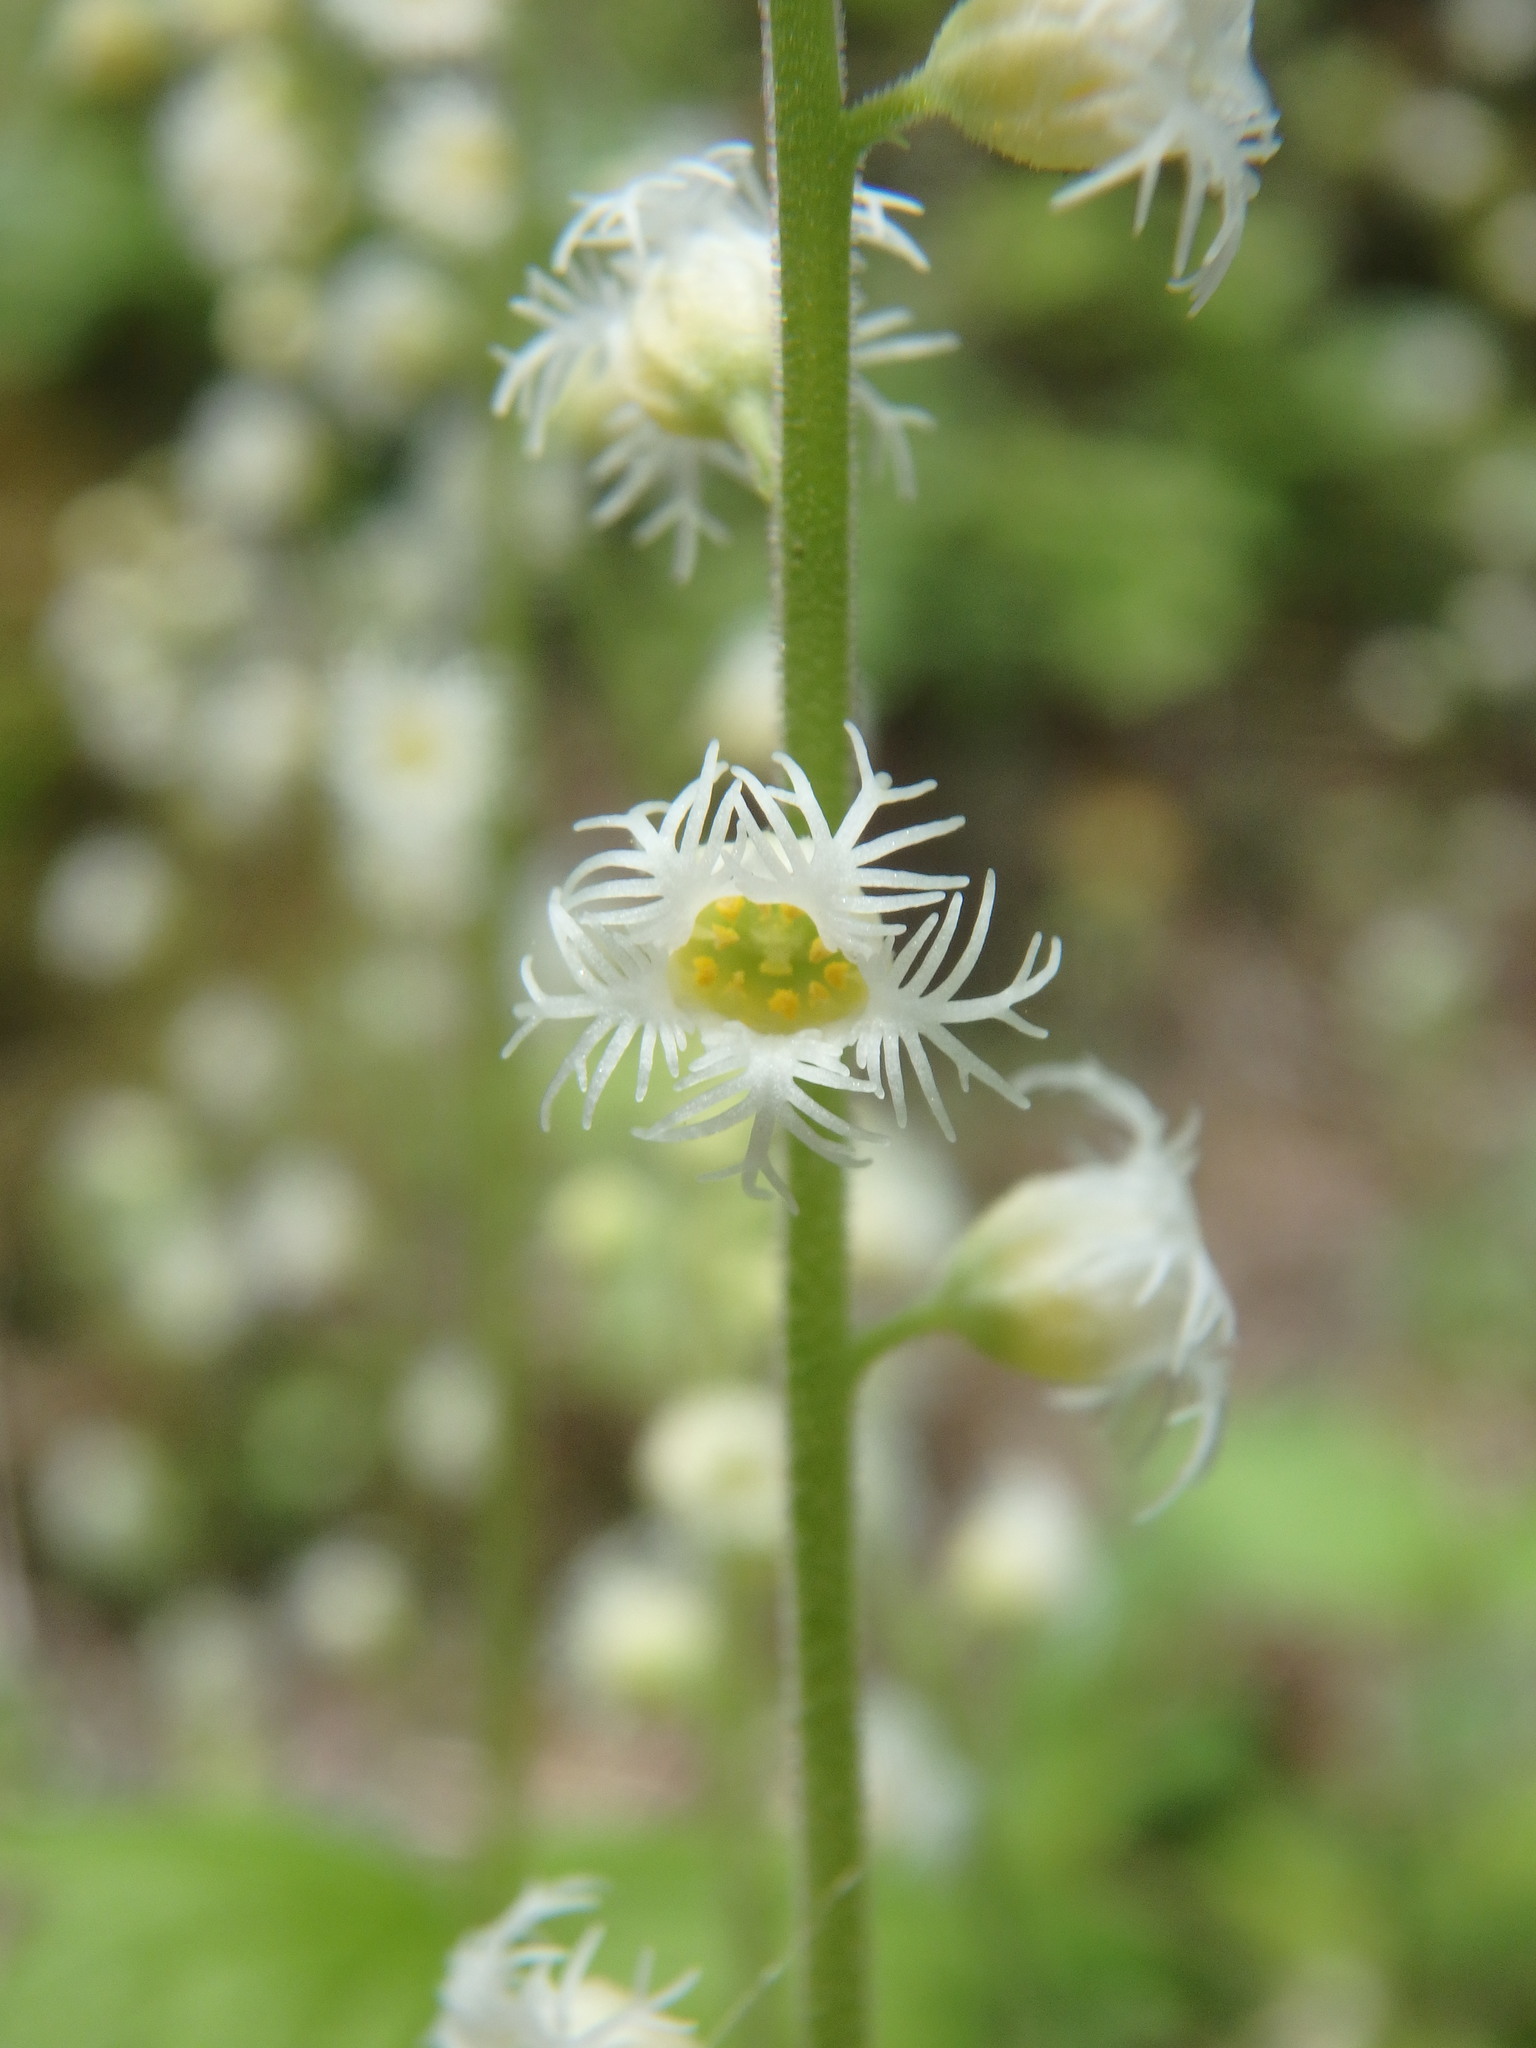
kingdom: Plantae
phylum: Tracheophyta
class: Magnoliopsida
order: Saxifragales
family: Saxifragaceae
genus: Mitella
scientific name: Mitella diphylla
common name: Coolwort
